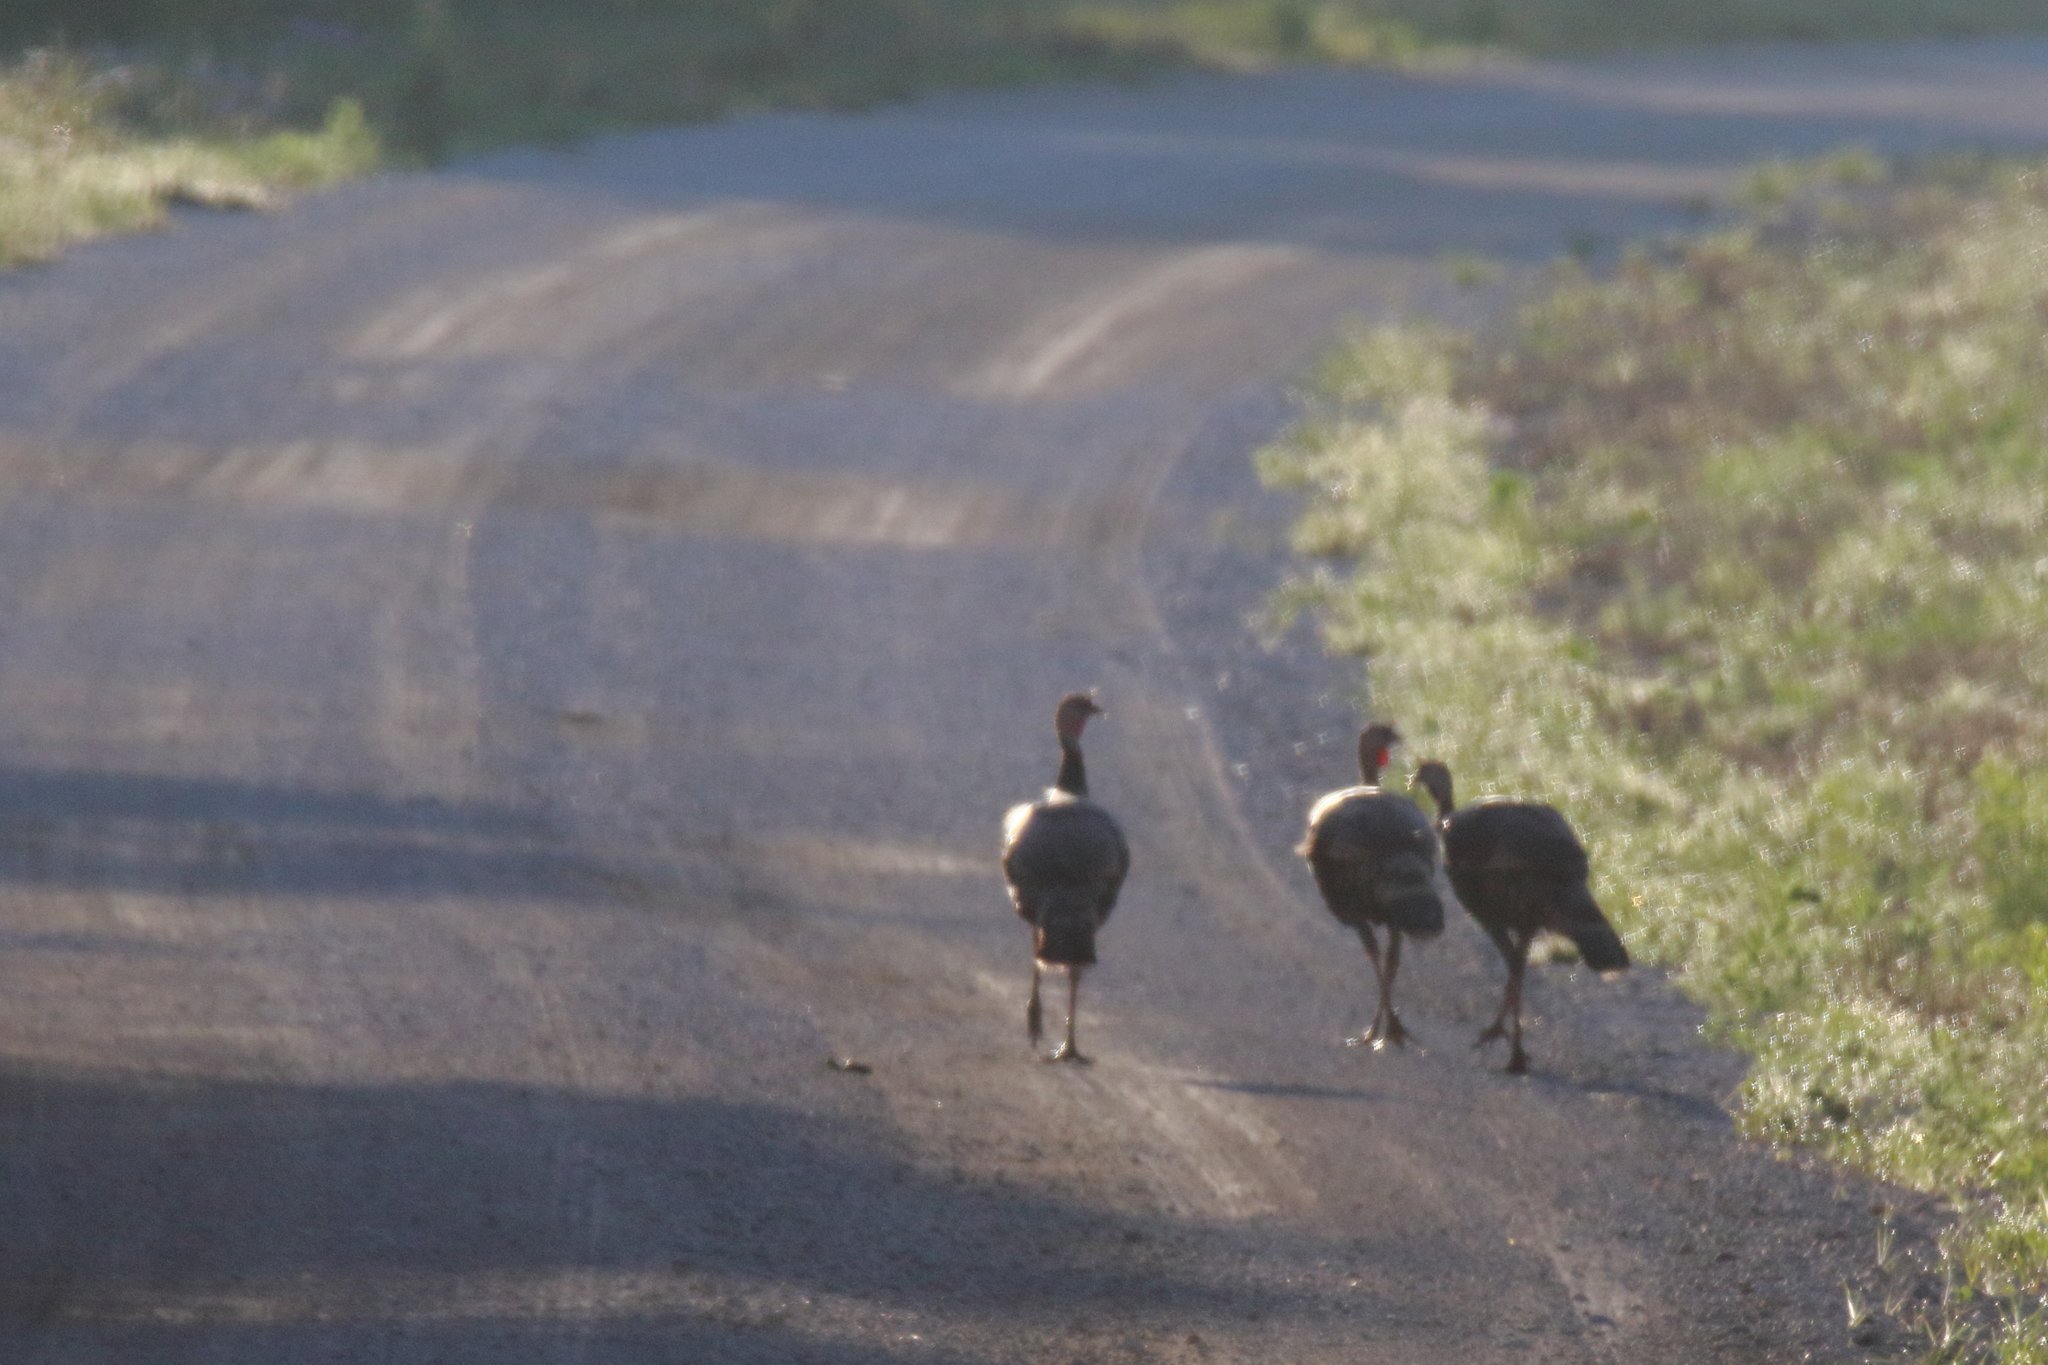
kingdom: Animalia
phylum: Chordata
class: Aves
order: Galliformes
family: Phasianidae
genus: Meleagris
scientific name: Meleagris gallopavo
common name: Wild turkey
